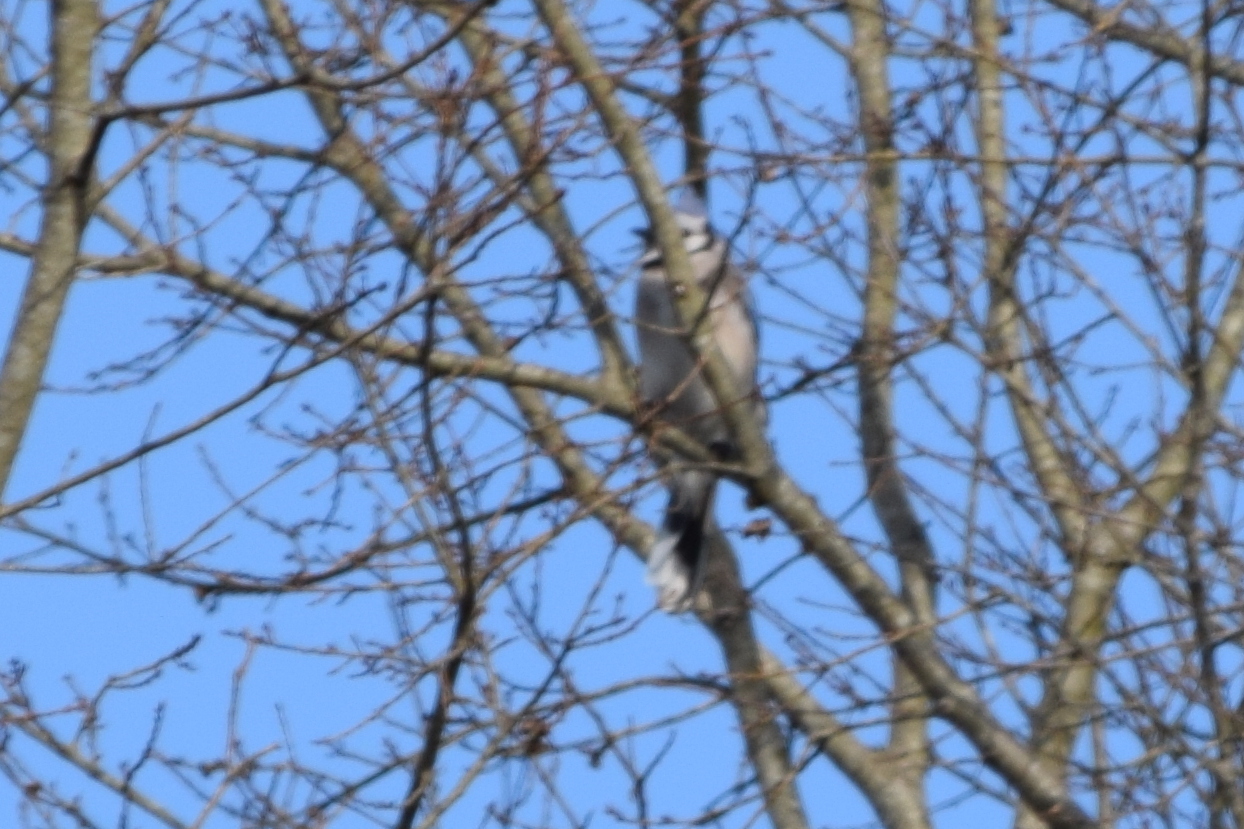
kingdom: Animalia
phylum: Chordata
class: Aves
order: Passeriformes
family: Corvidae
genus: Cyanocitta
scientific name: Cyanocitta cristata
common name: Blue jay
